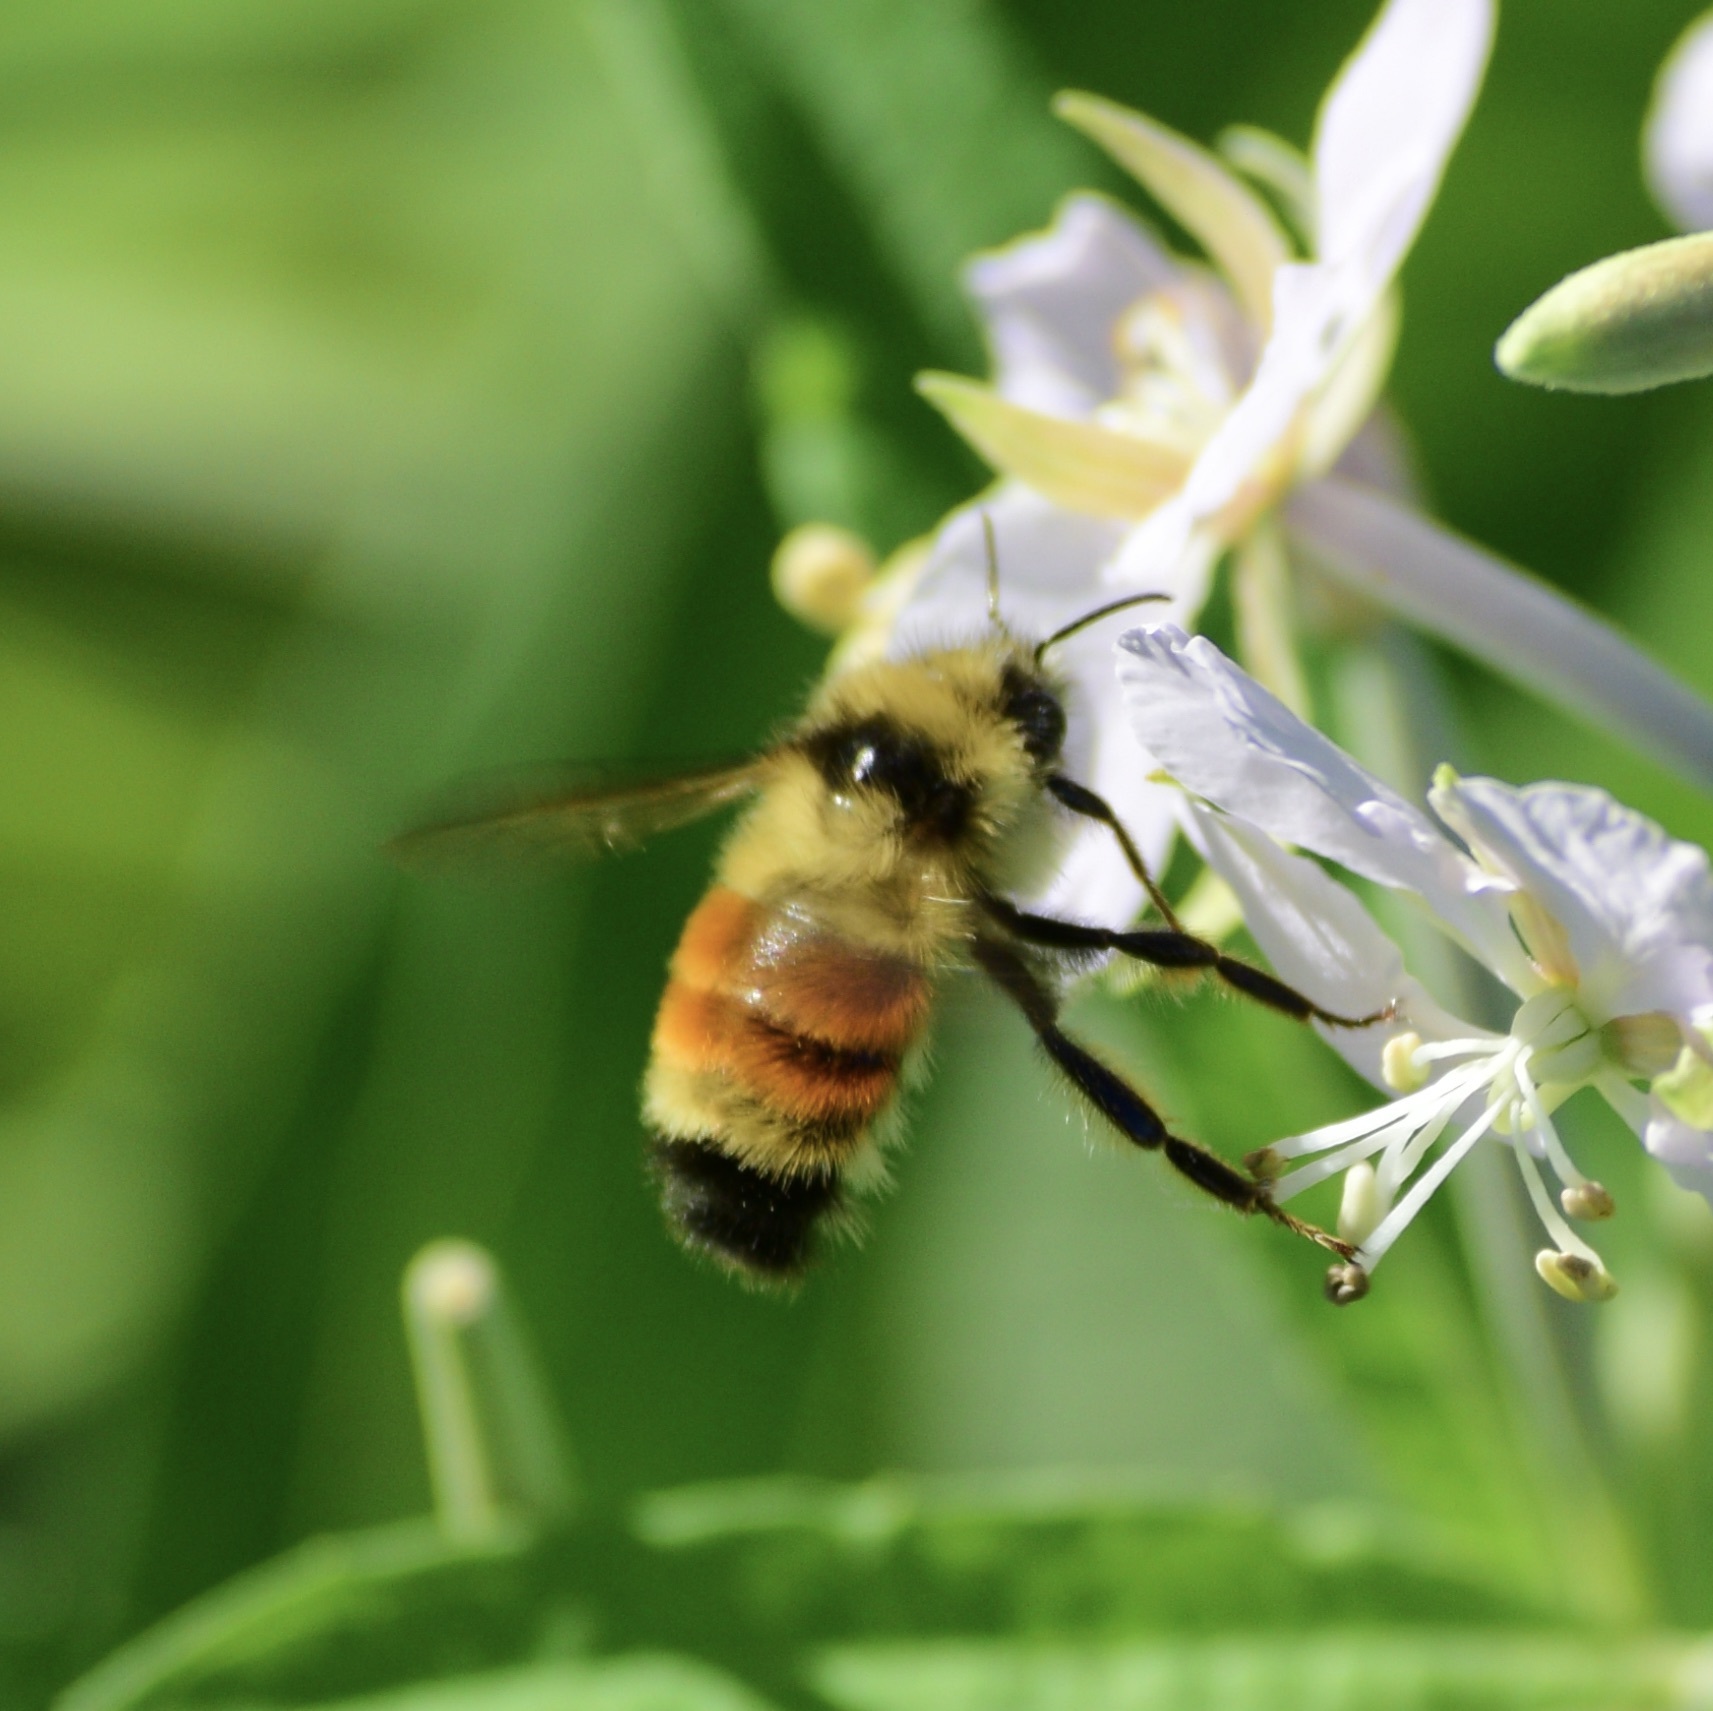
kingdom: Animalia
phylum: Arthropoda
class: Insecta
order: Hymenoptera
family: Apidae
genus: Bombus
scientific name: Bombus ternarius
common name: Tri-colored bumble bee
